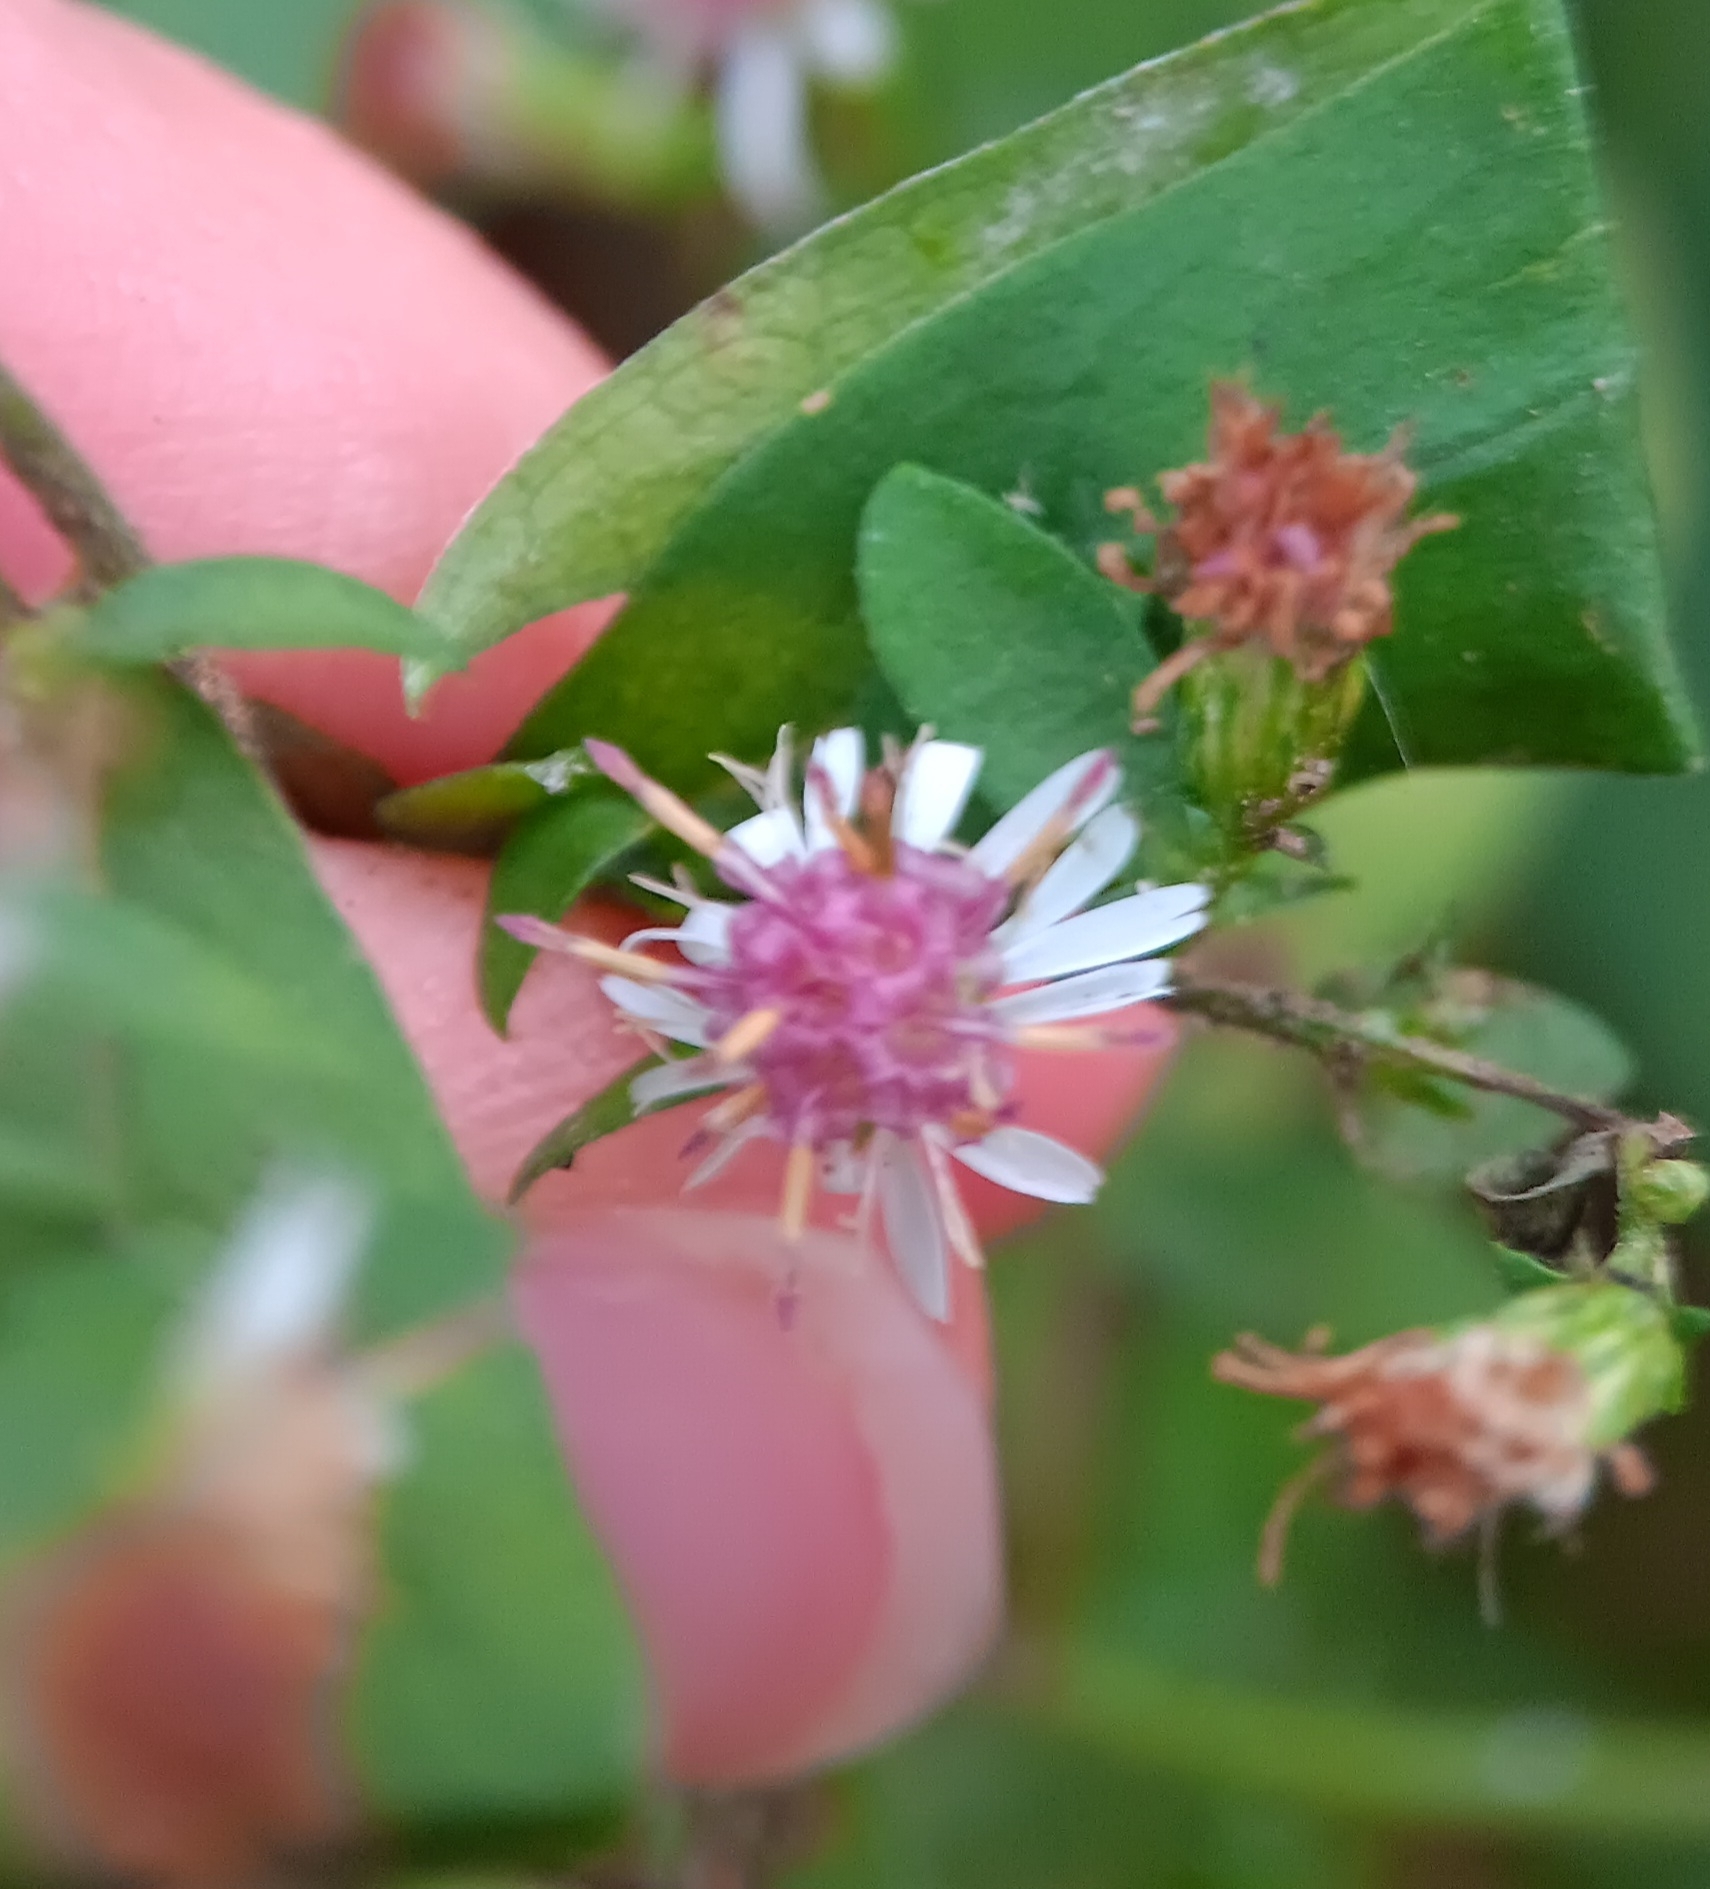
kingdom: Plantae
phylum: Tracheophyta
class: Magnoliopsida
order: Asterales
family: Asteraceae
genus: Symphyotrichum
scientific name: Symphyotrichum lateriflorum
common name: Calico aster
